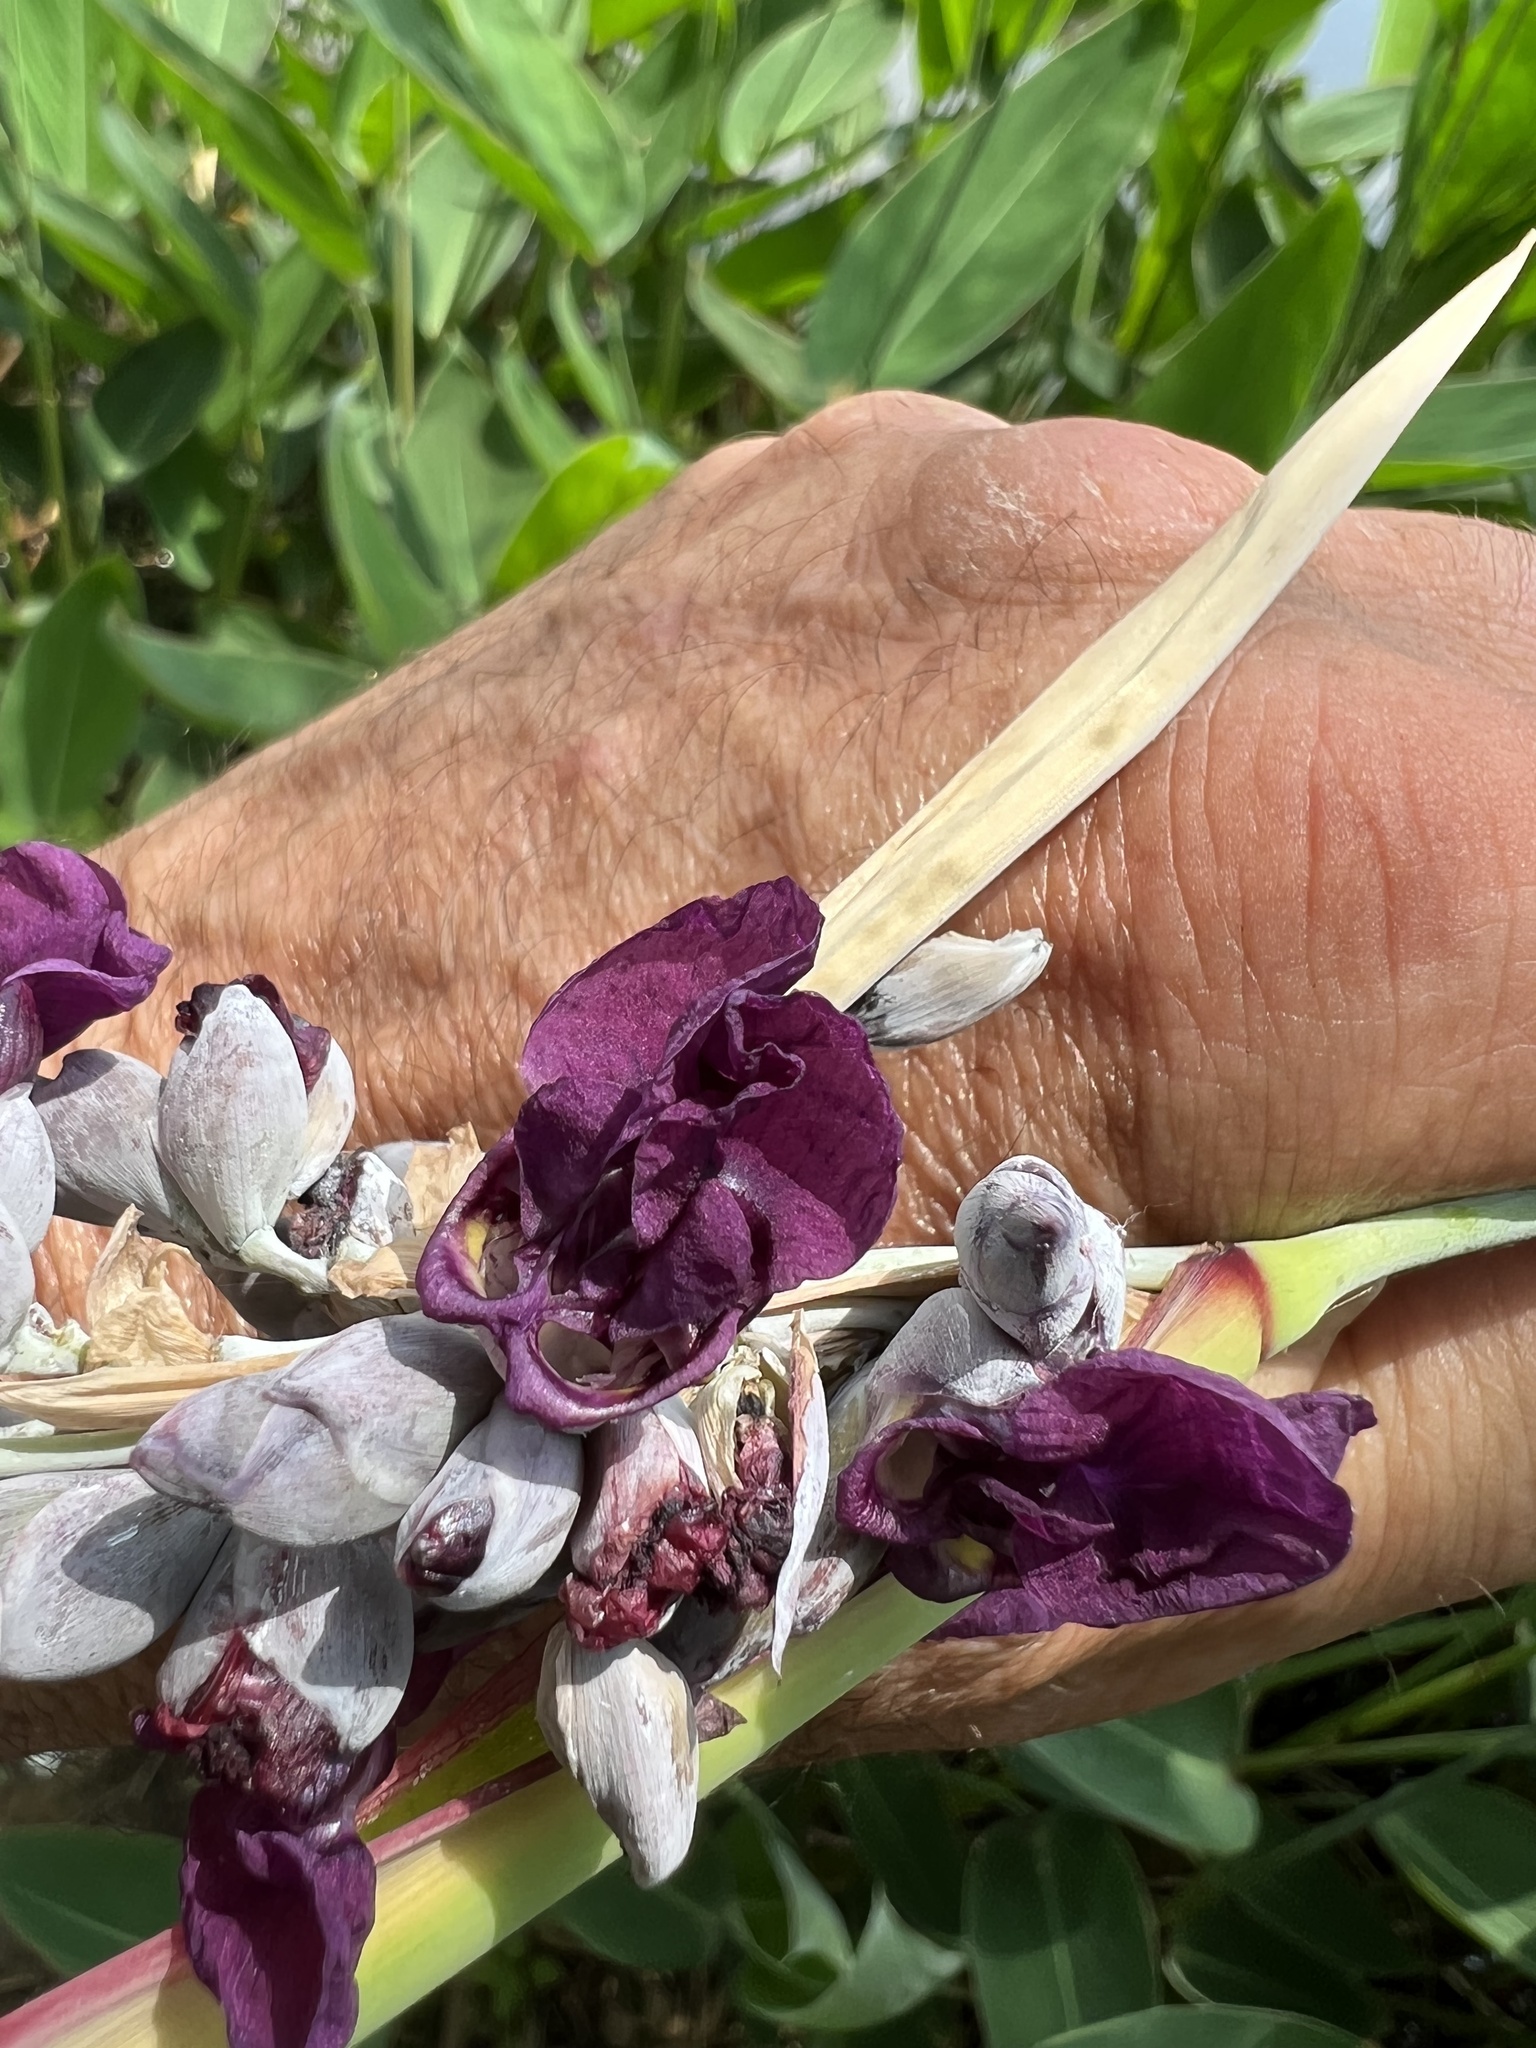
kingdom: Plantae
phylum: Tracheophyta
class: Liliopsida
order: Zingiberales
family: Marantaceae
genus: Thalia
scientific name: Thalia dealbata
